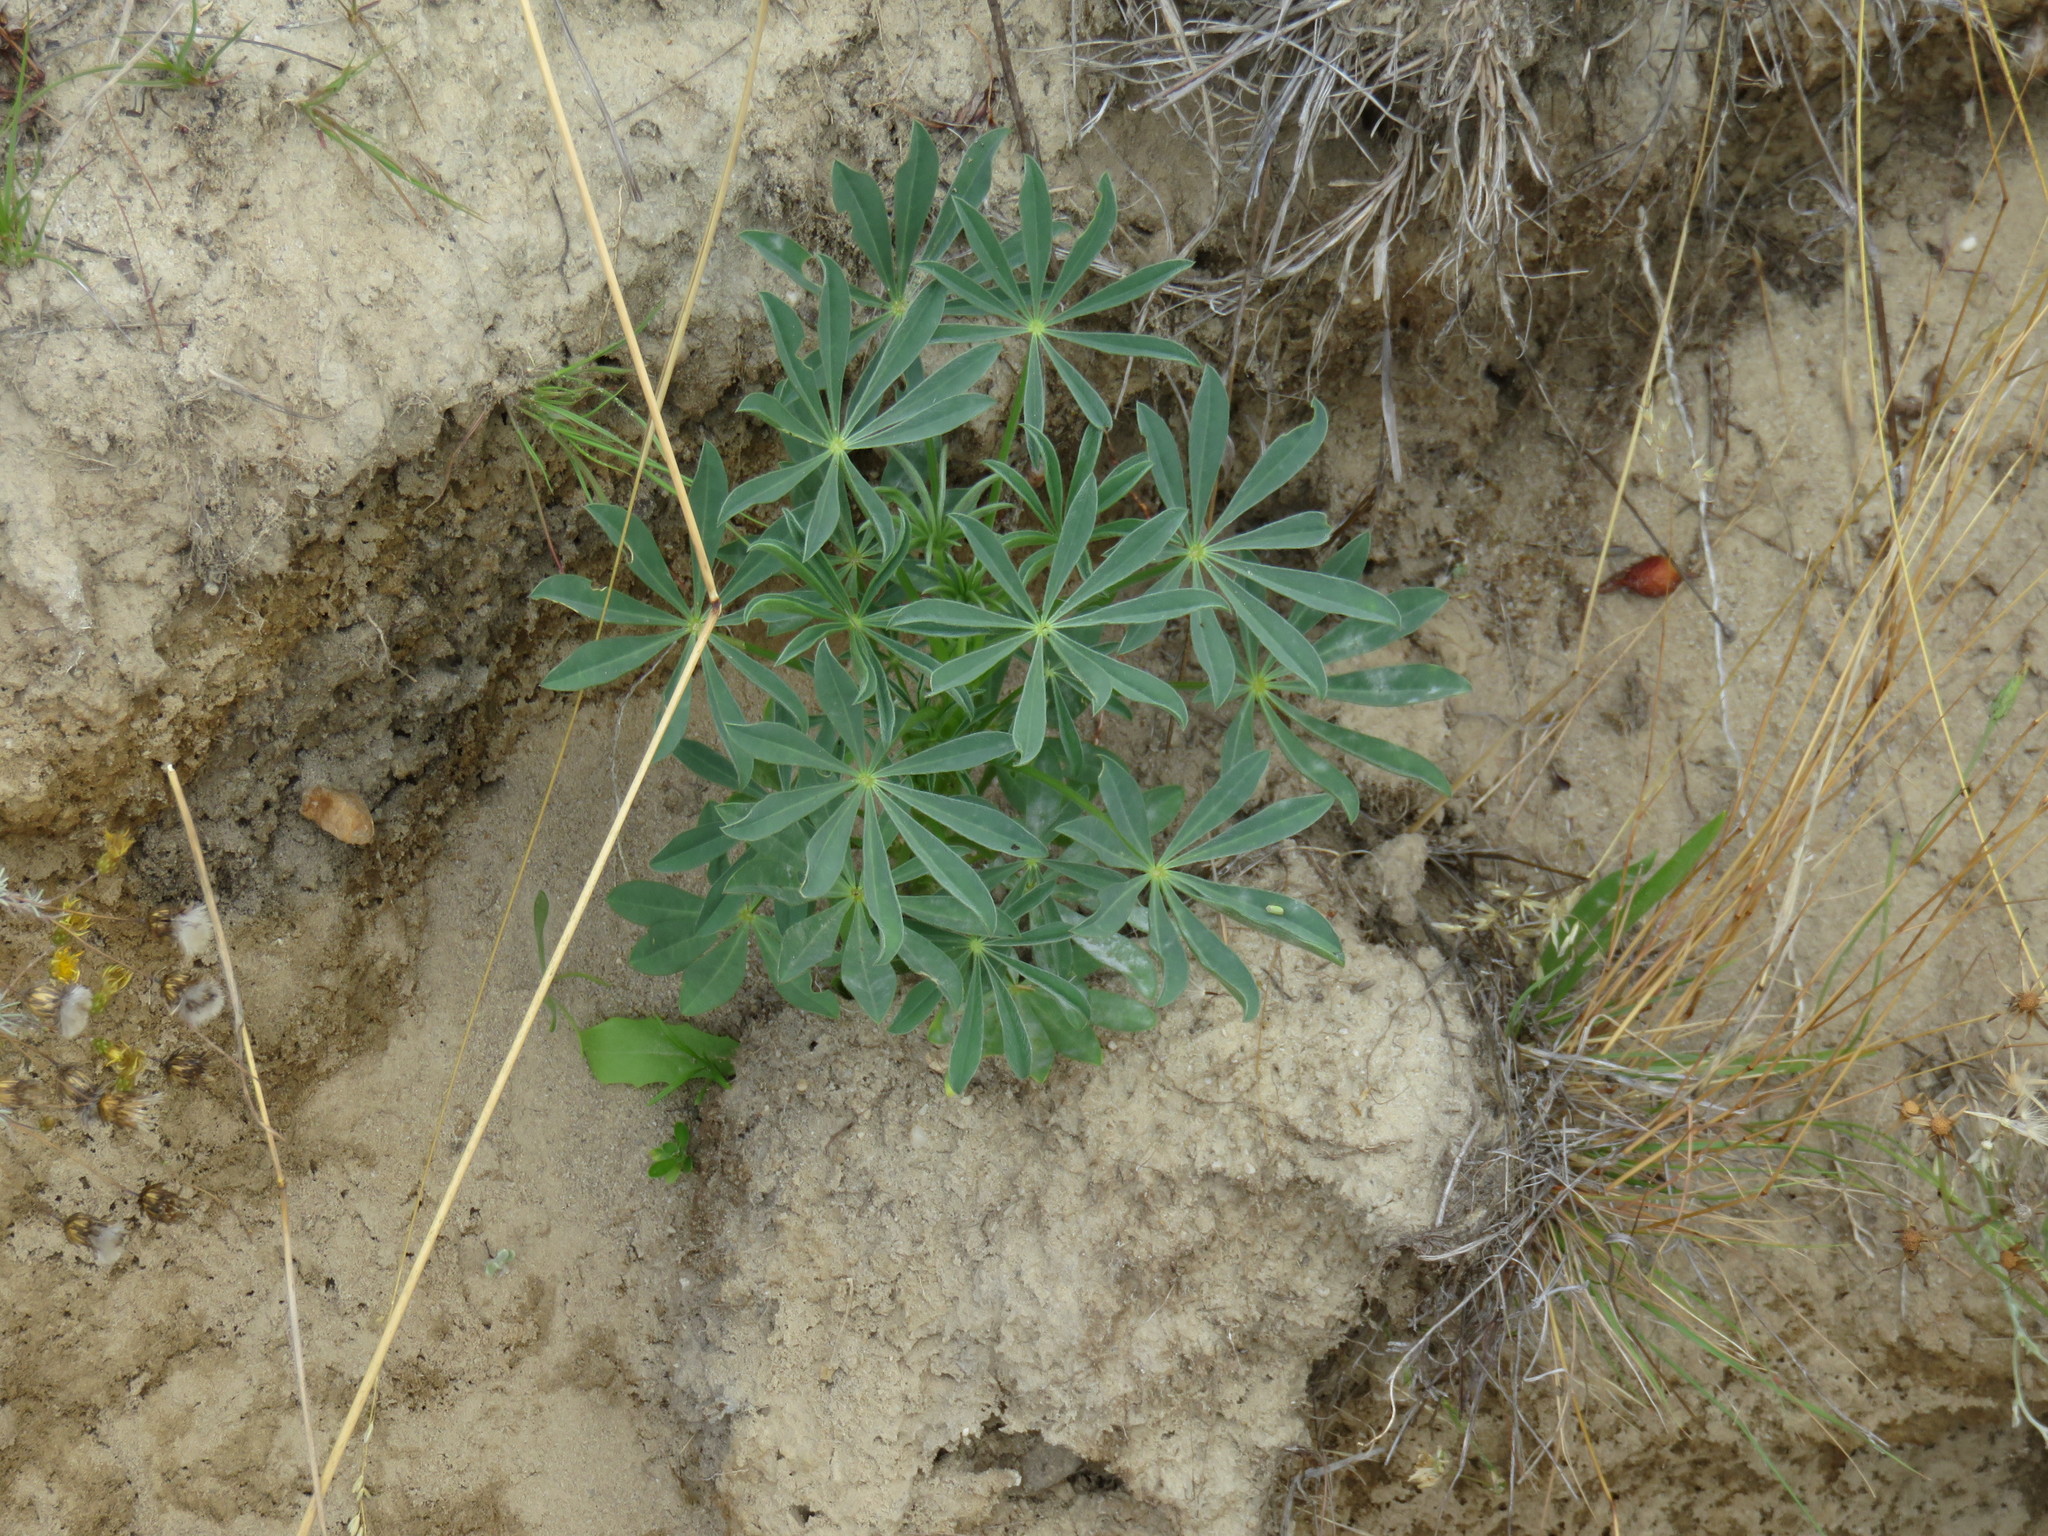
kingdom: Plantae
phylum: Tracheophyta
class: Magnoliopsida
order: Fabales
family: Fabaceae
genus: Lupinus
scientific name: Lupinus luteus
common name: European yellow lupine
